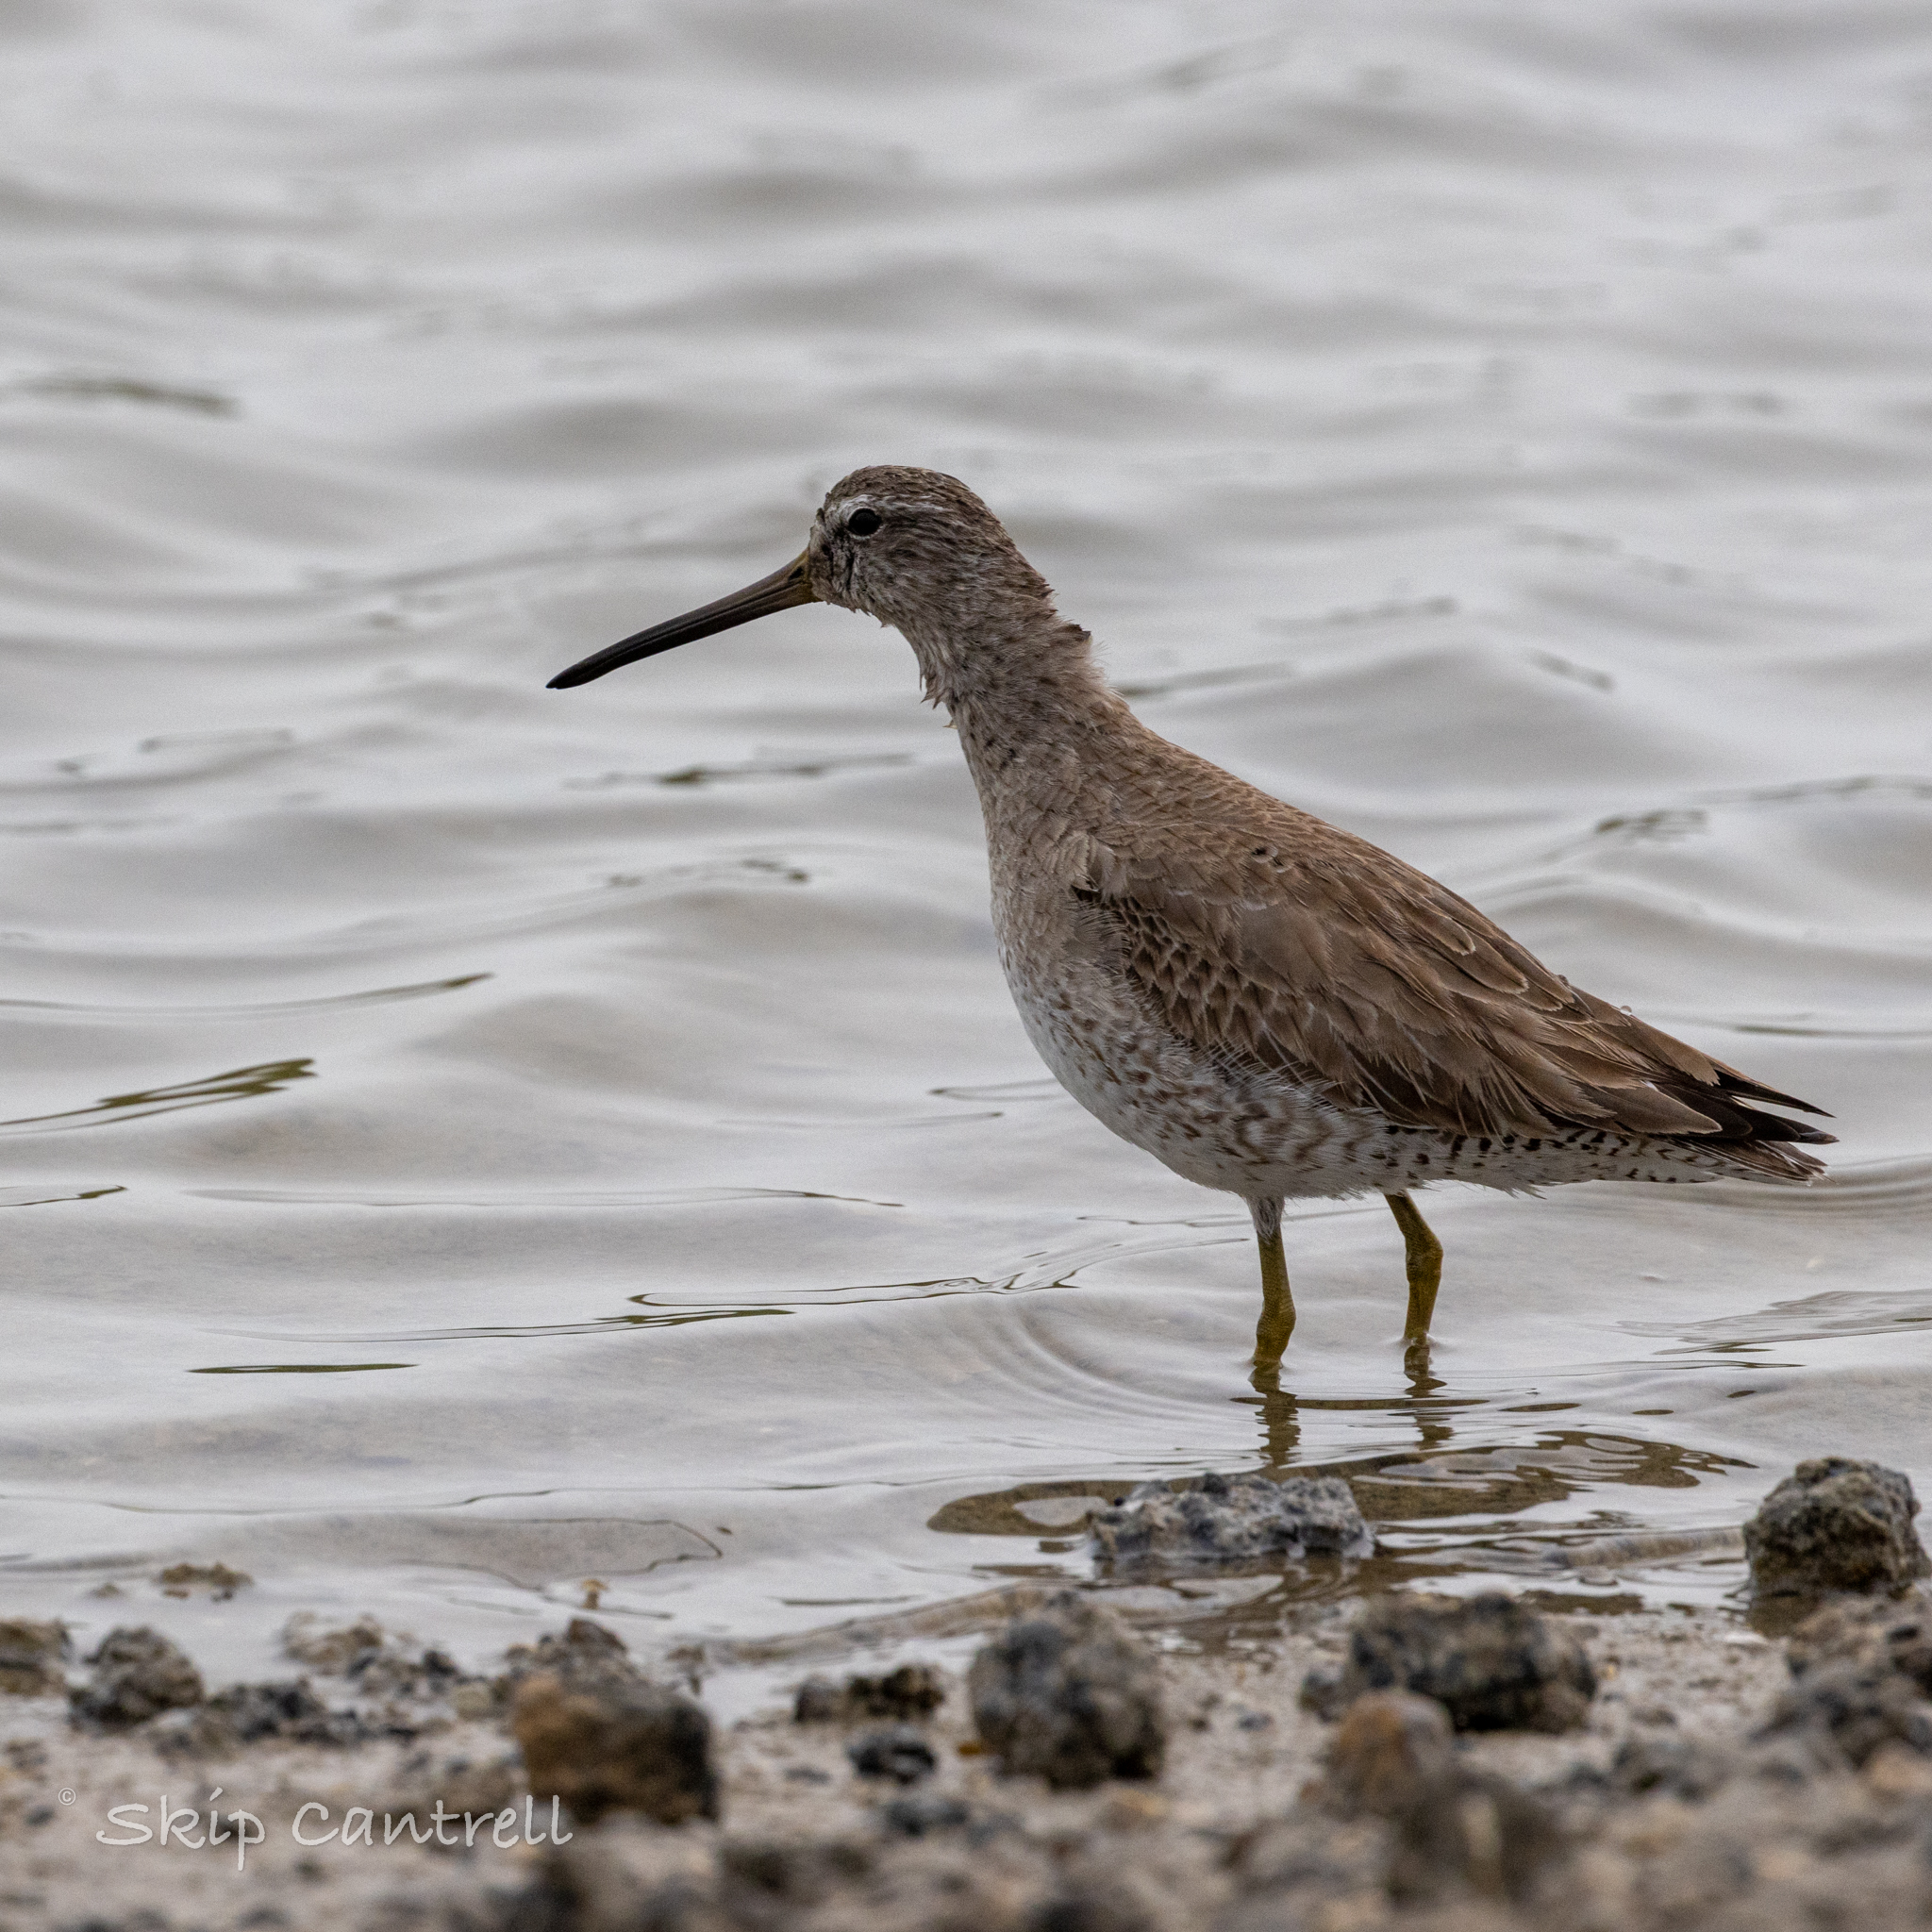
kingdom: Animalia
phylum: Chordata
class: Aves
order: Charadriiformes
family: Scolopacidae
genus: Limnodromus
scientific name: Limnodromus griseus
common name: Short-billed dowitcher
